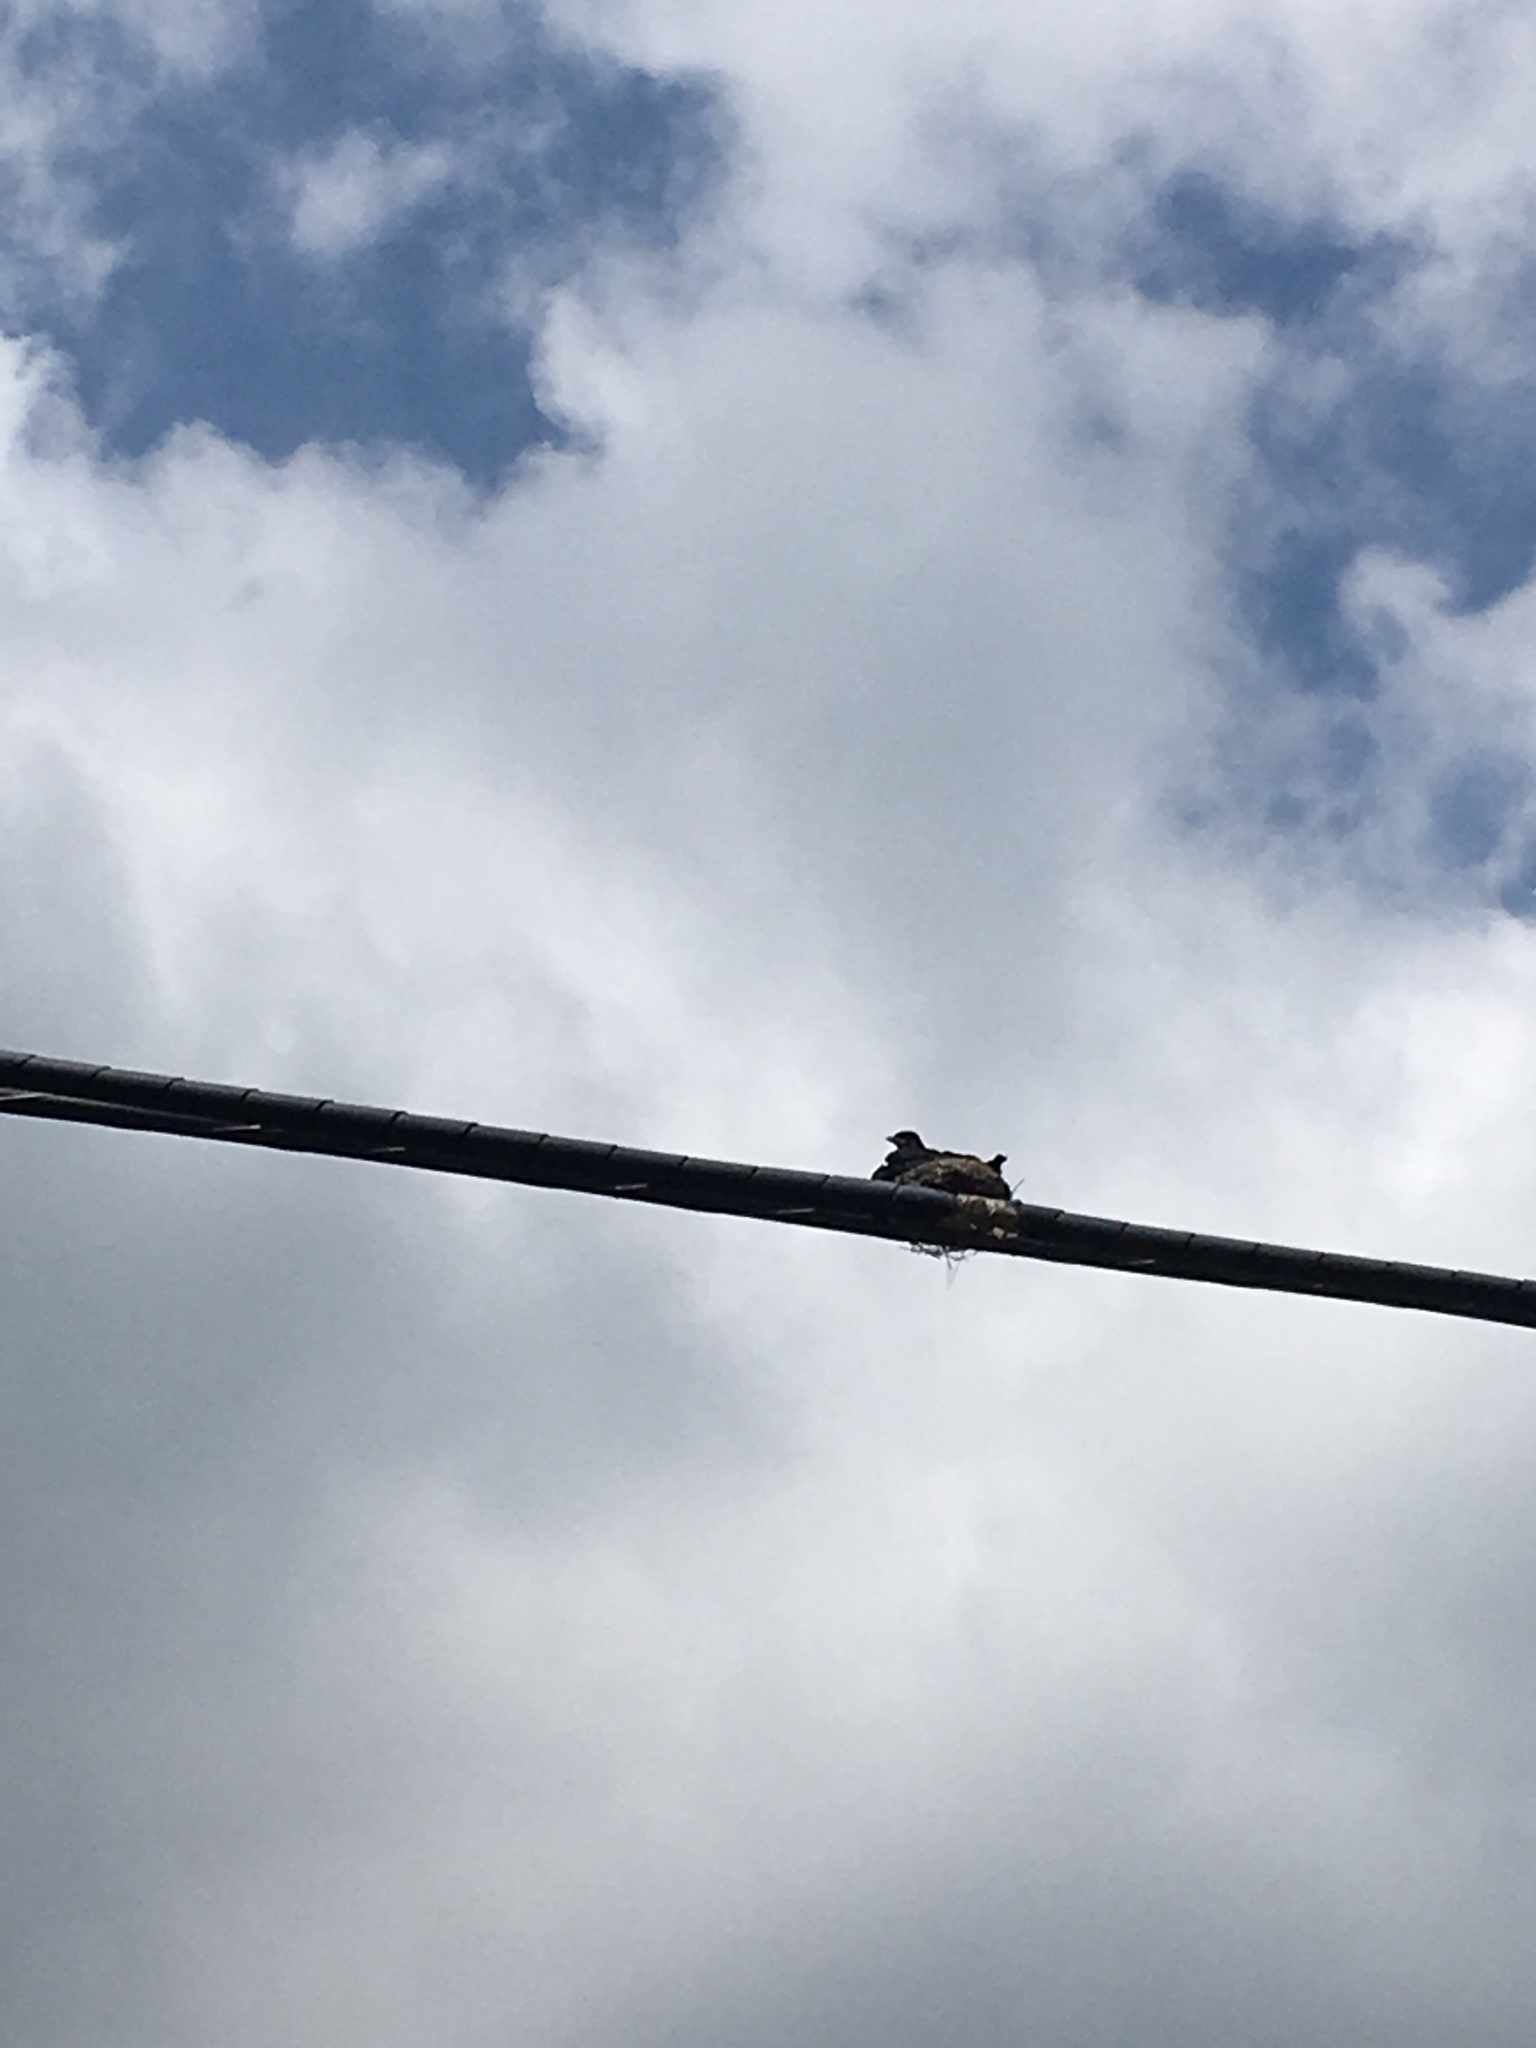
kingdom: Animalia
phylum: Chordata
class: Aves
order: Passeriformes
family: Dicruridae
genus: Dicrurus
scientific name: Dicrurus macrocercus
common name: Black drongo
